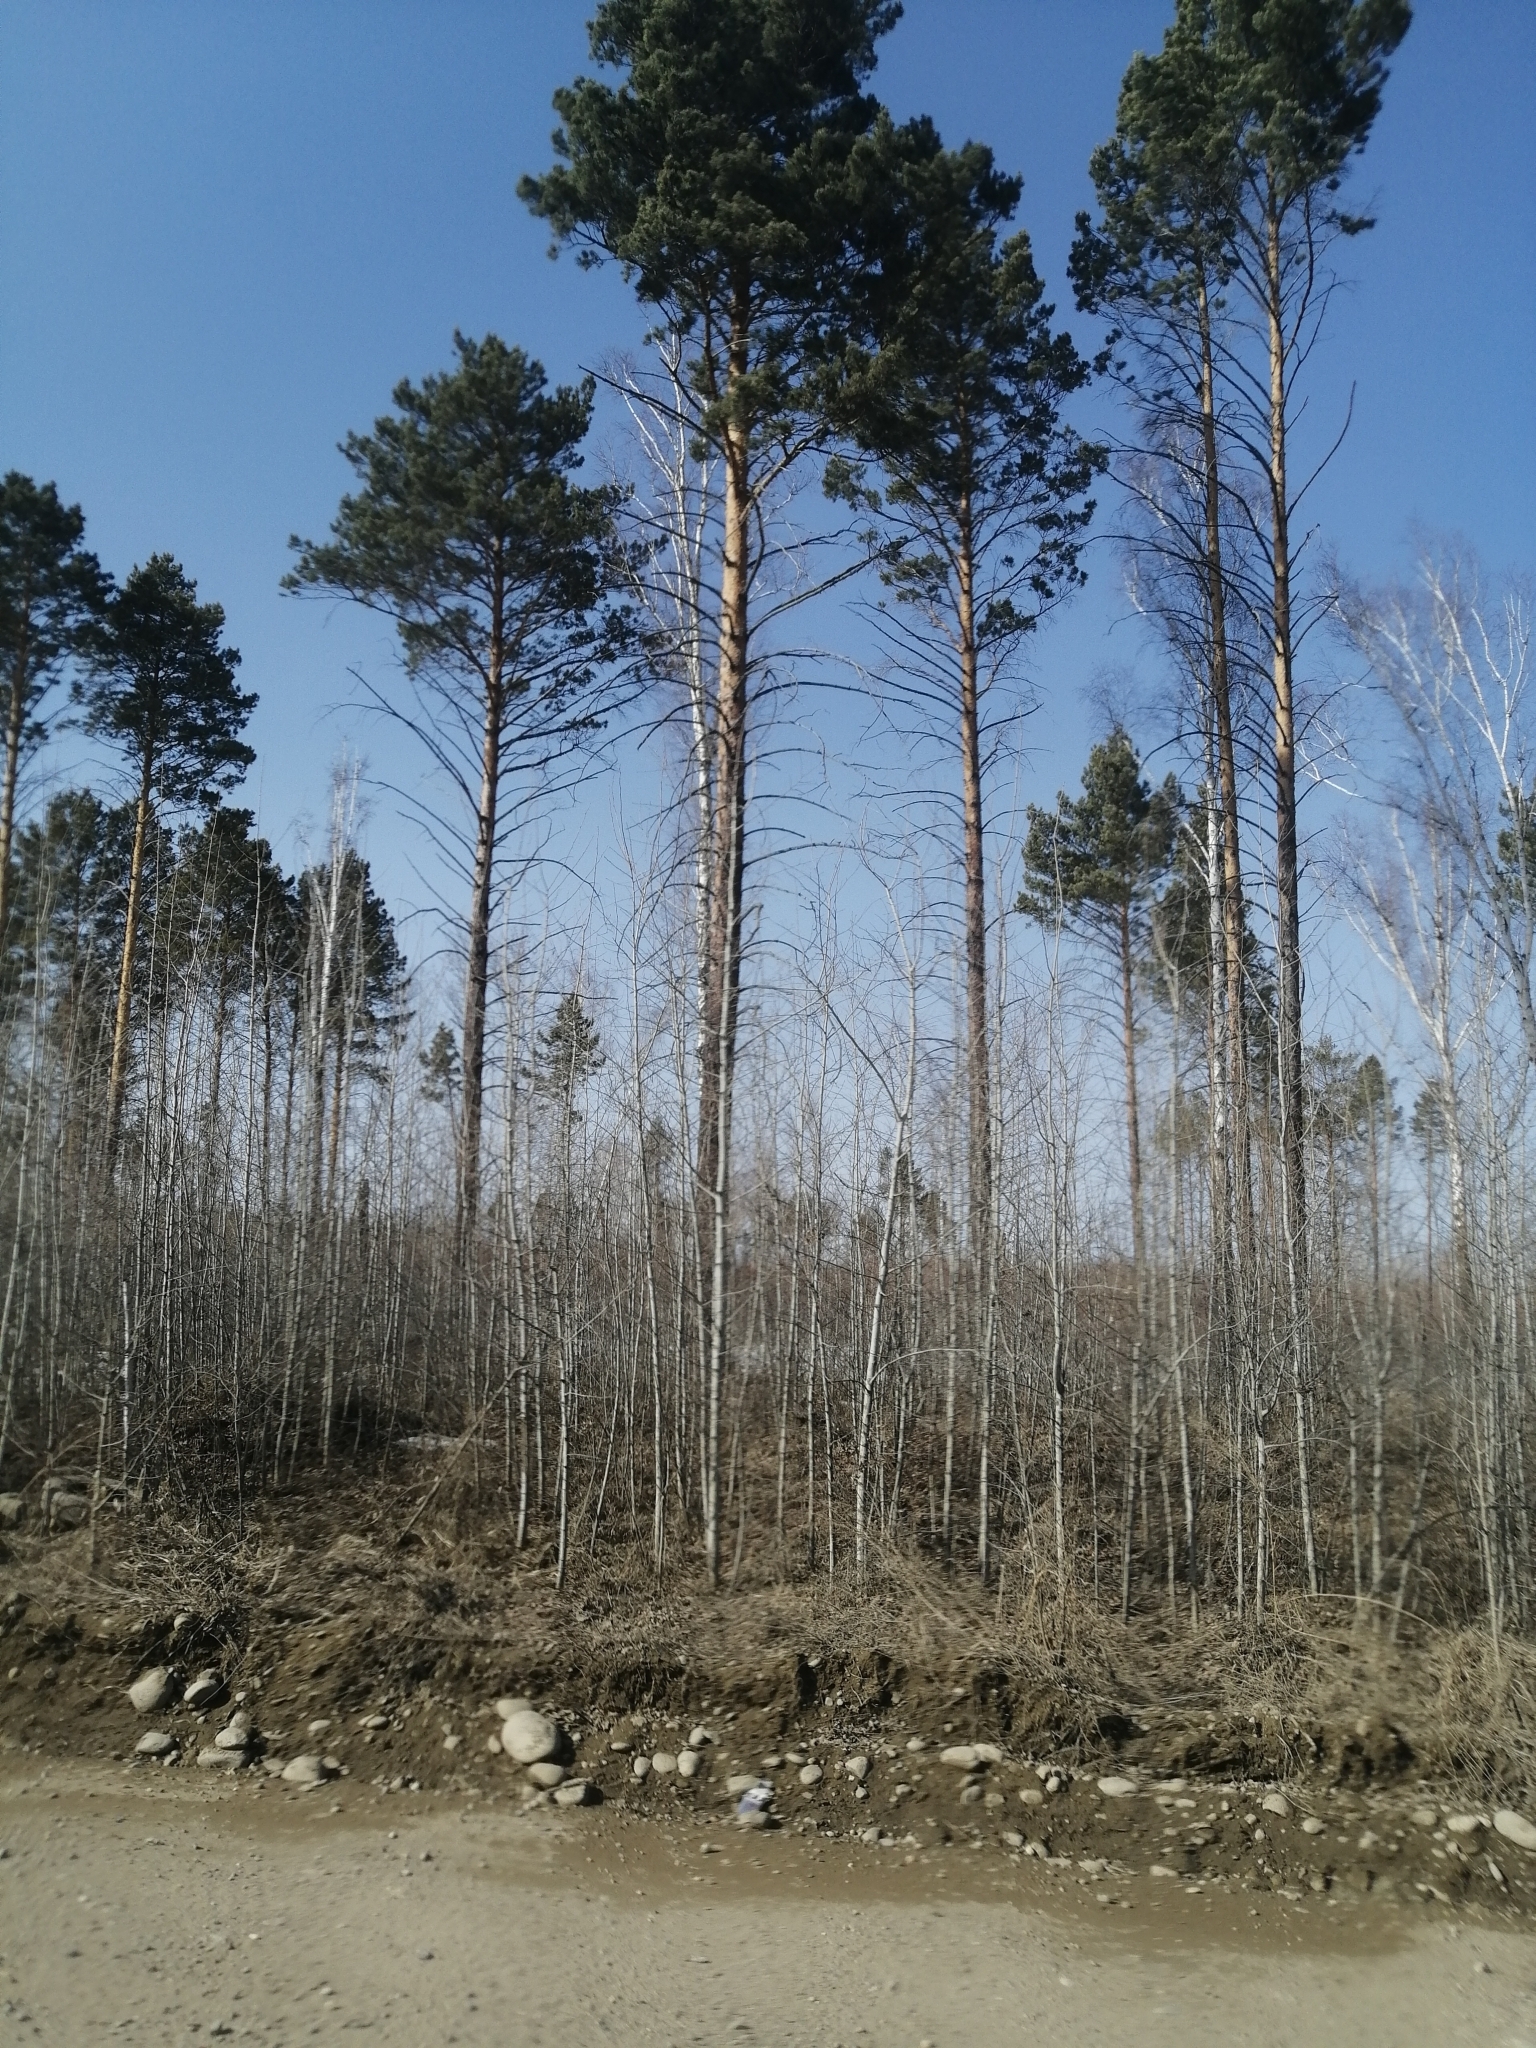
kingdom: Plantae
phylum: Tracheophyta
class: Pinopsida
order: Pinales
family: Pinaceae
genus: Pinus
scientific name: Pinus sylvestris
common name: Scots pine
